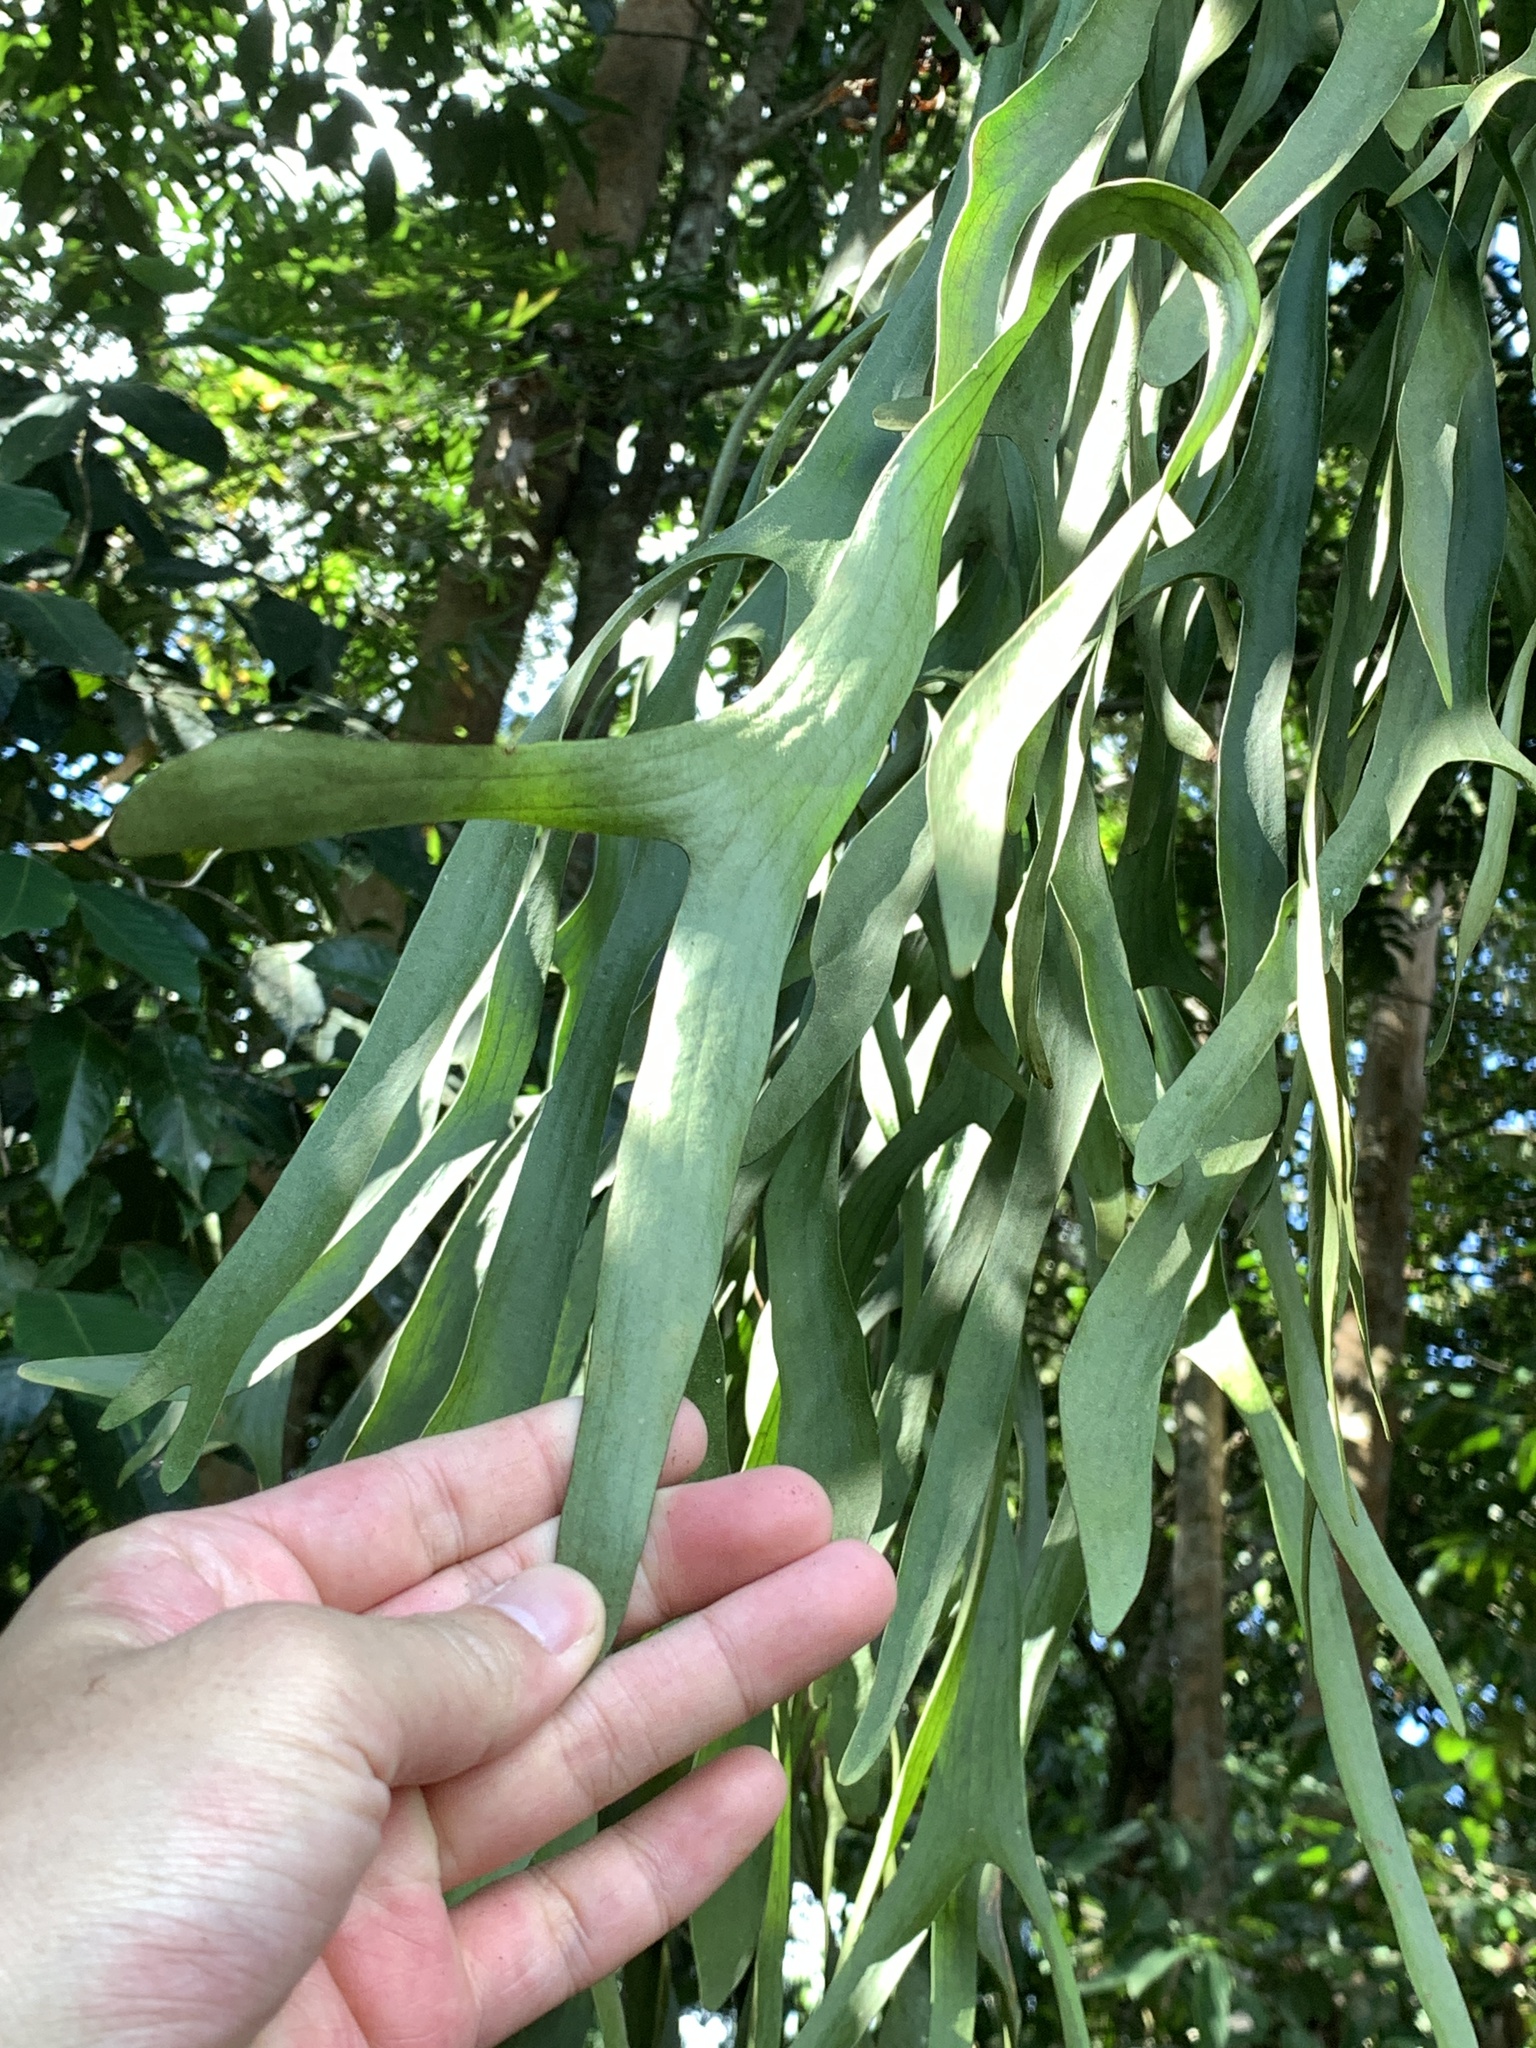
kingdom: Plantae
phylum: Tracheophyta
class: Polypodiopsida
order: Polypodiales
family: Polypodiaceae
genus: Platycerium
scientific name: Platycerium coronarium
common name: Elkhorn fern
